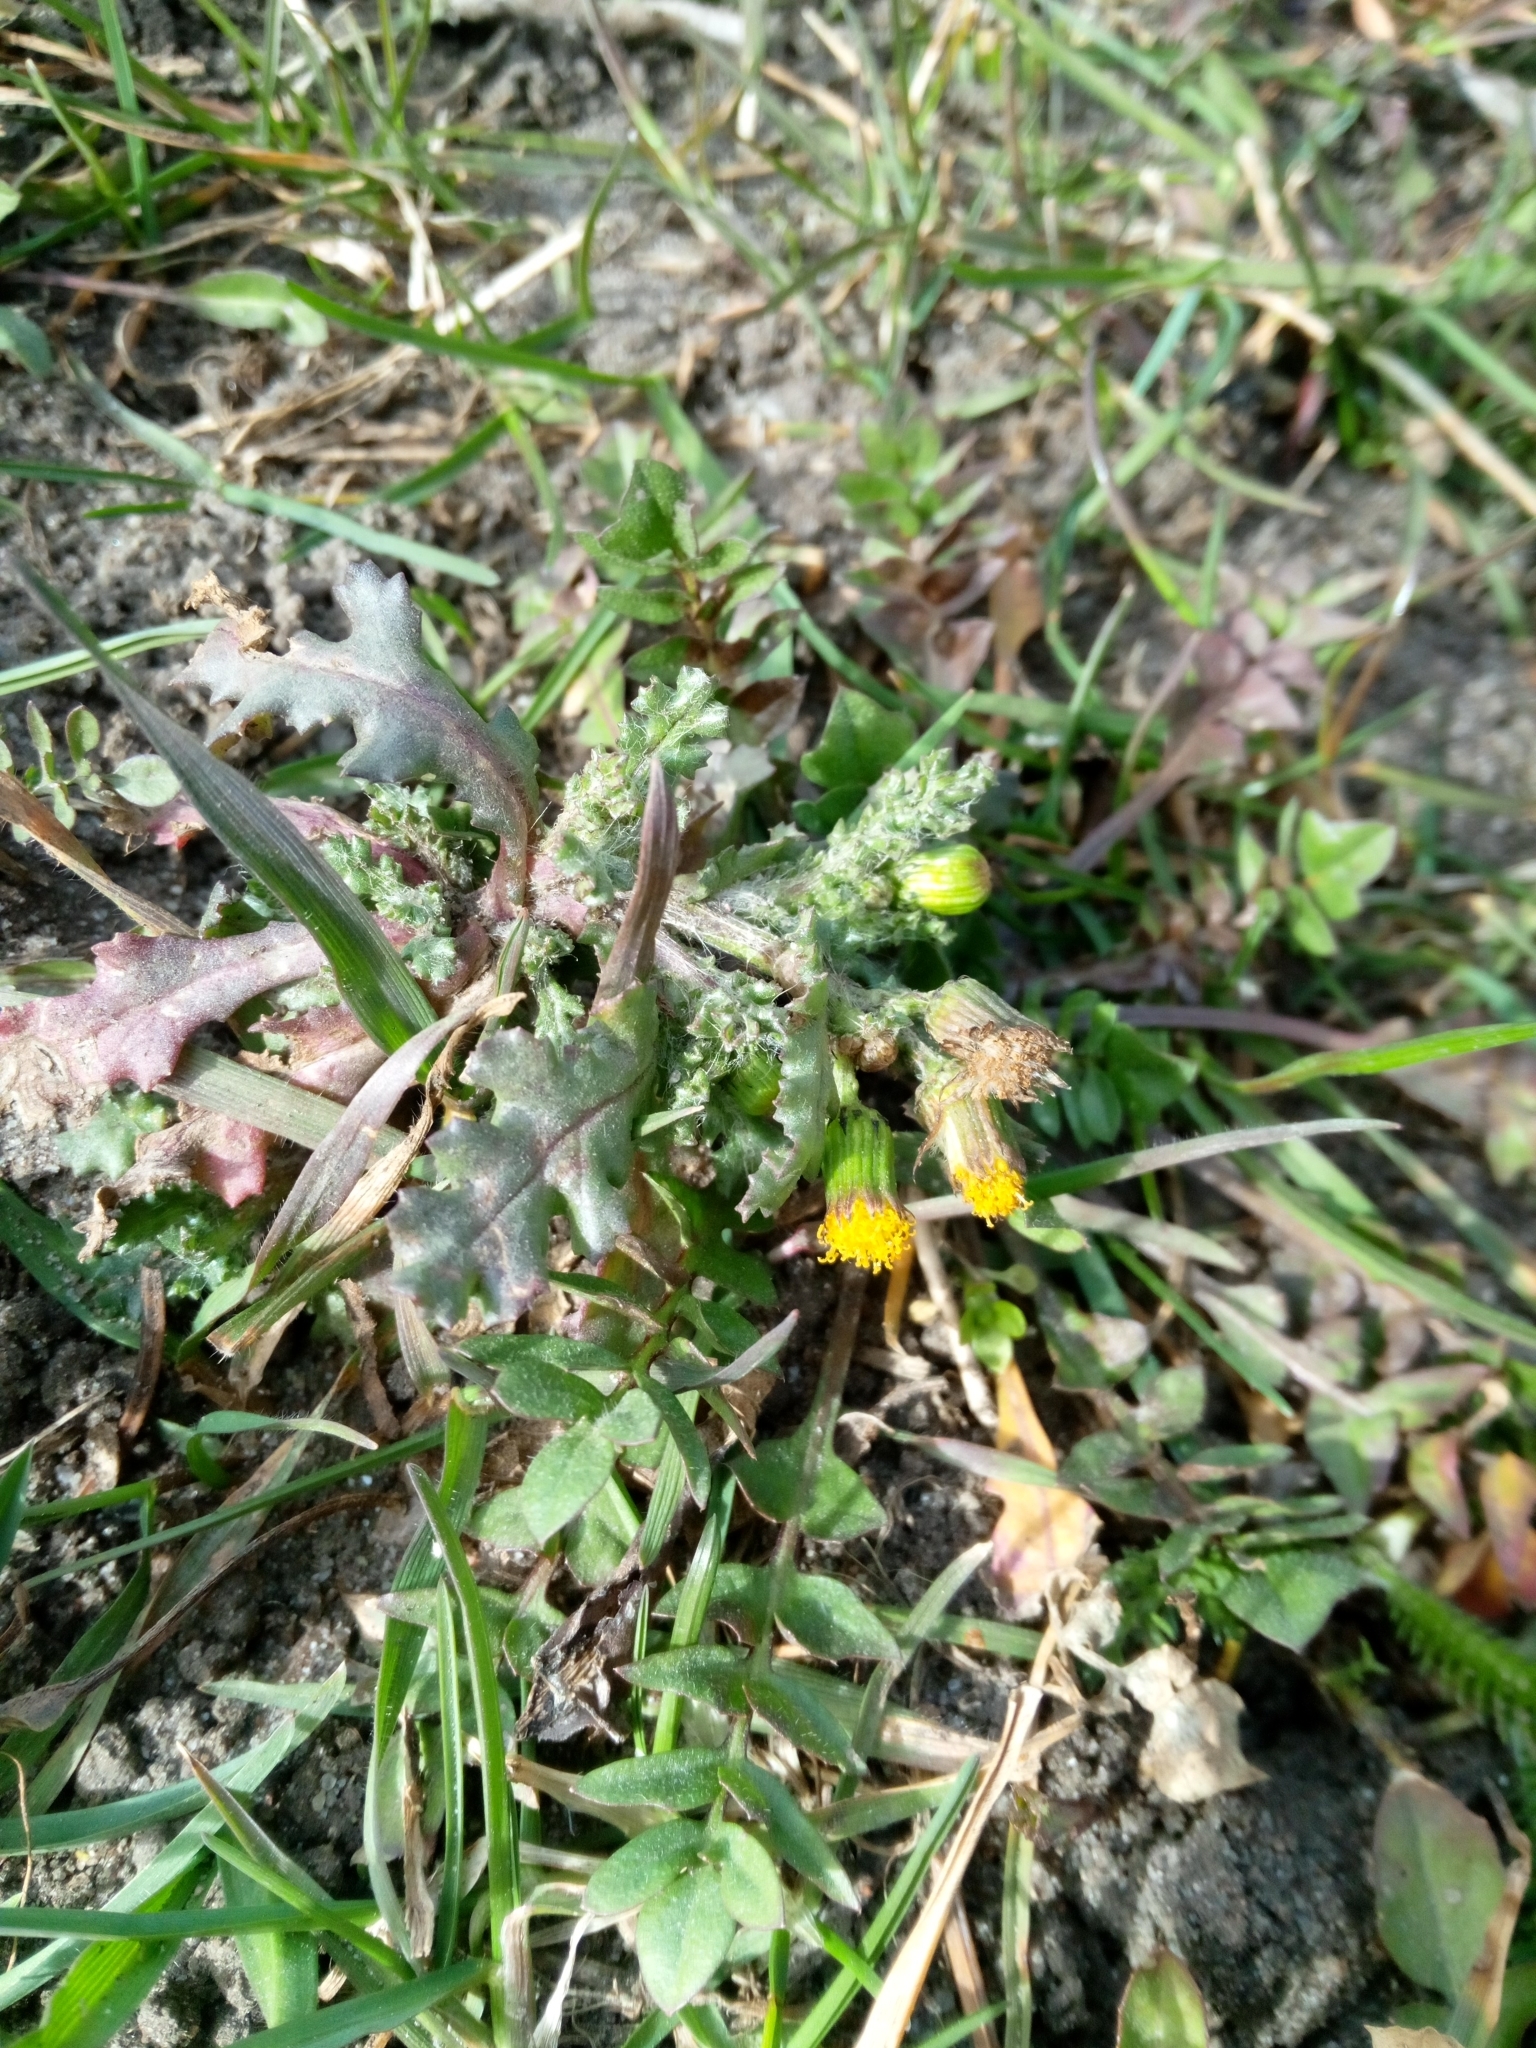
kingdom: Plantae
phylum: Tracheophyta
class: Magnoliopsida
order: Asterales
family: Asteraceae
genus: Senecio
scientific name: Senecio vulgaris
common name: Old-man-in-the-spring
